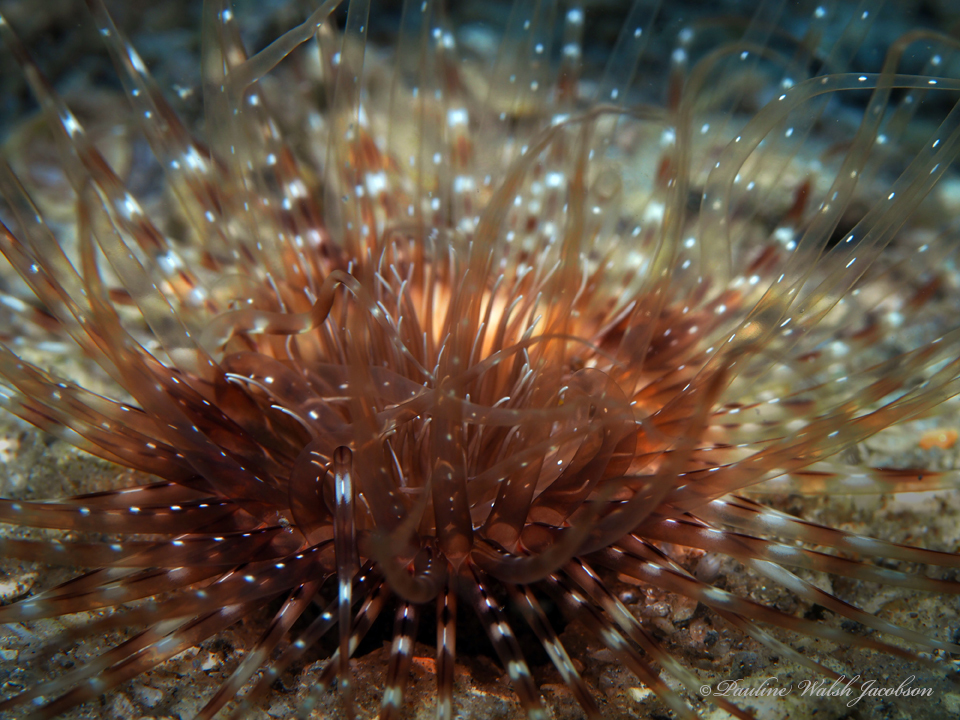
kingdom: Animalia
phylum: Cnidaria
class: Anthozoa
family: Cerianthidae
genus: Ceriantheopsis
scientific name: Ceriantheopsis americana
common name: American tube-dwelling anemone
